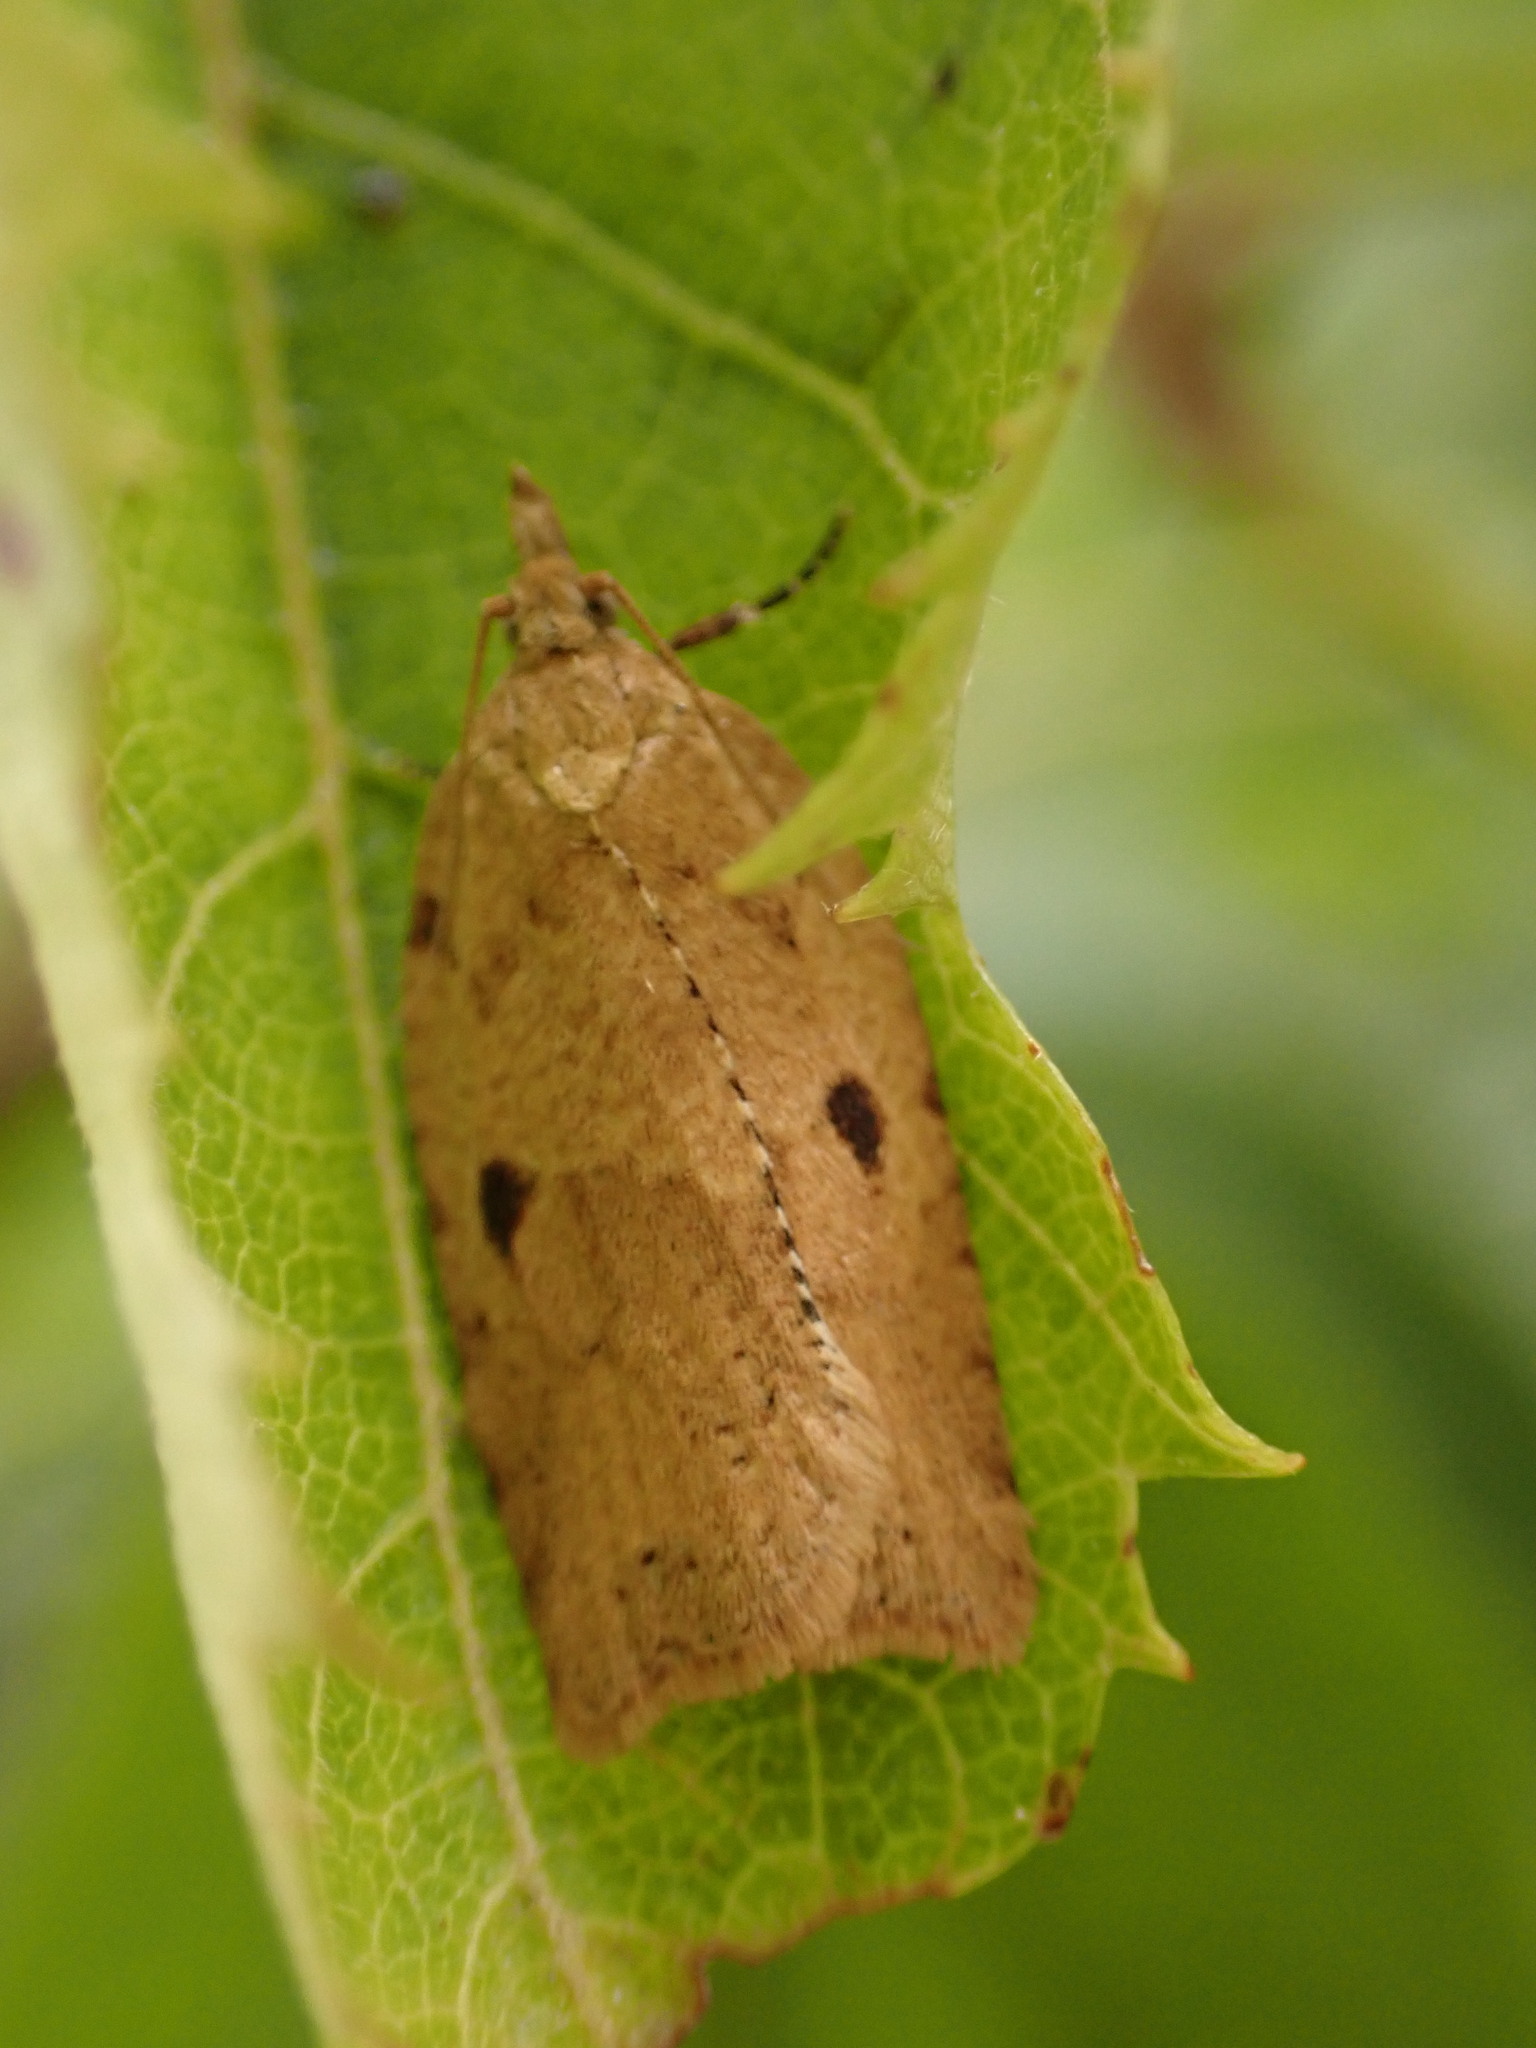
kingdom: Animalia
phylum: Arthropoda
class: Insecta
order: Lepidoptera
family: Tortricidae
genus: Ctenopseustis
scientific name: Ctenopseustis obliquana
